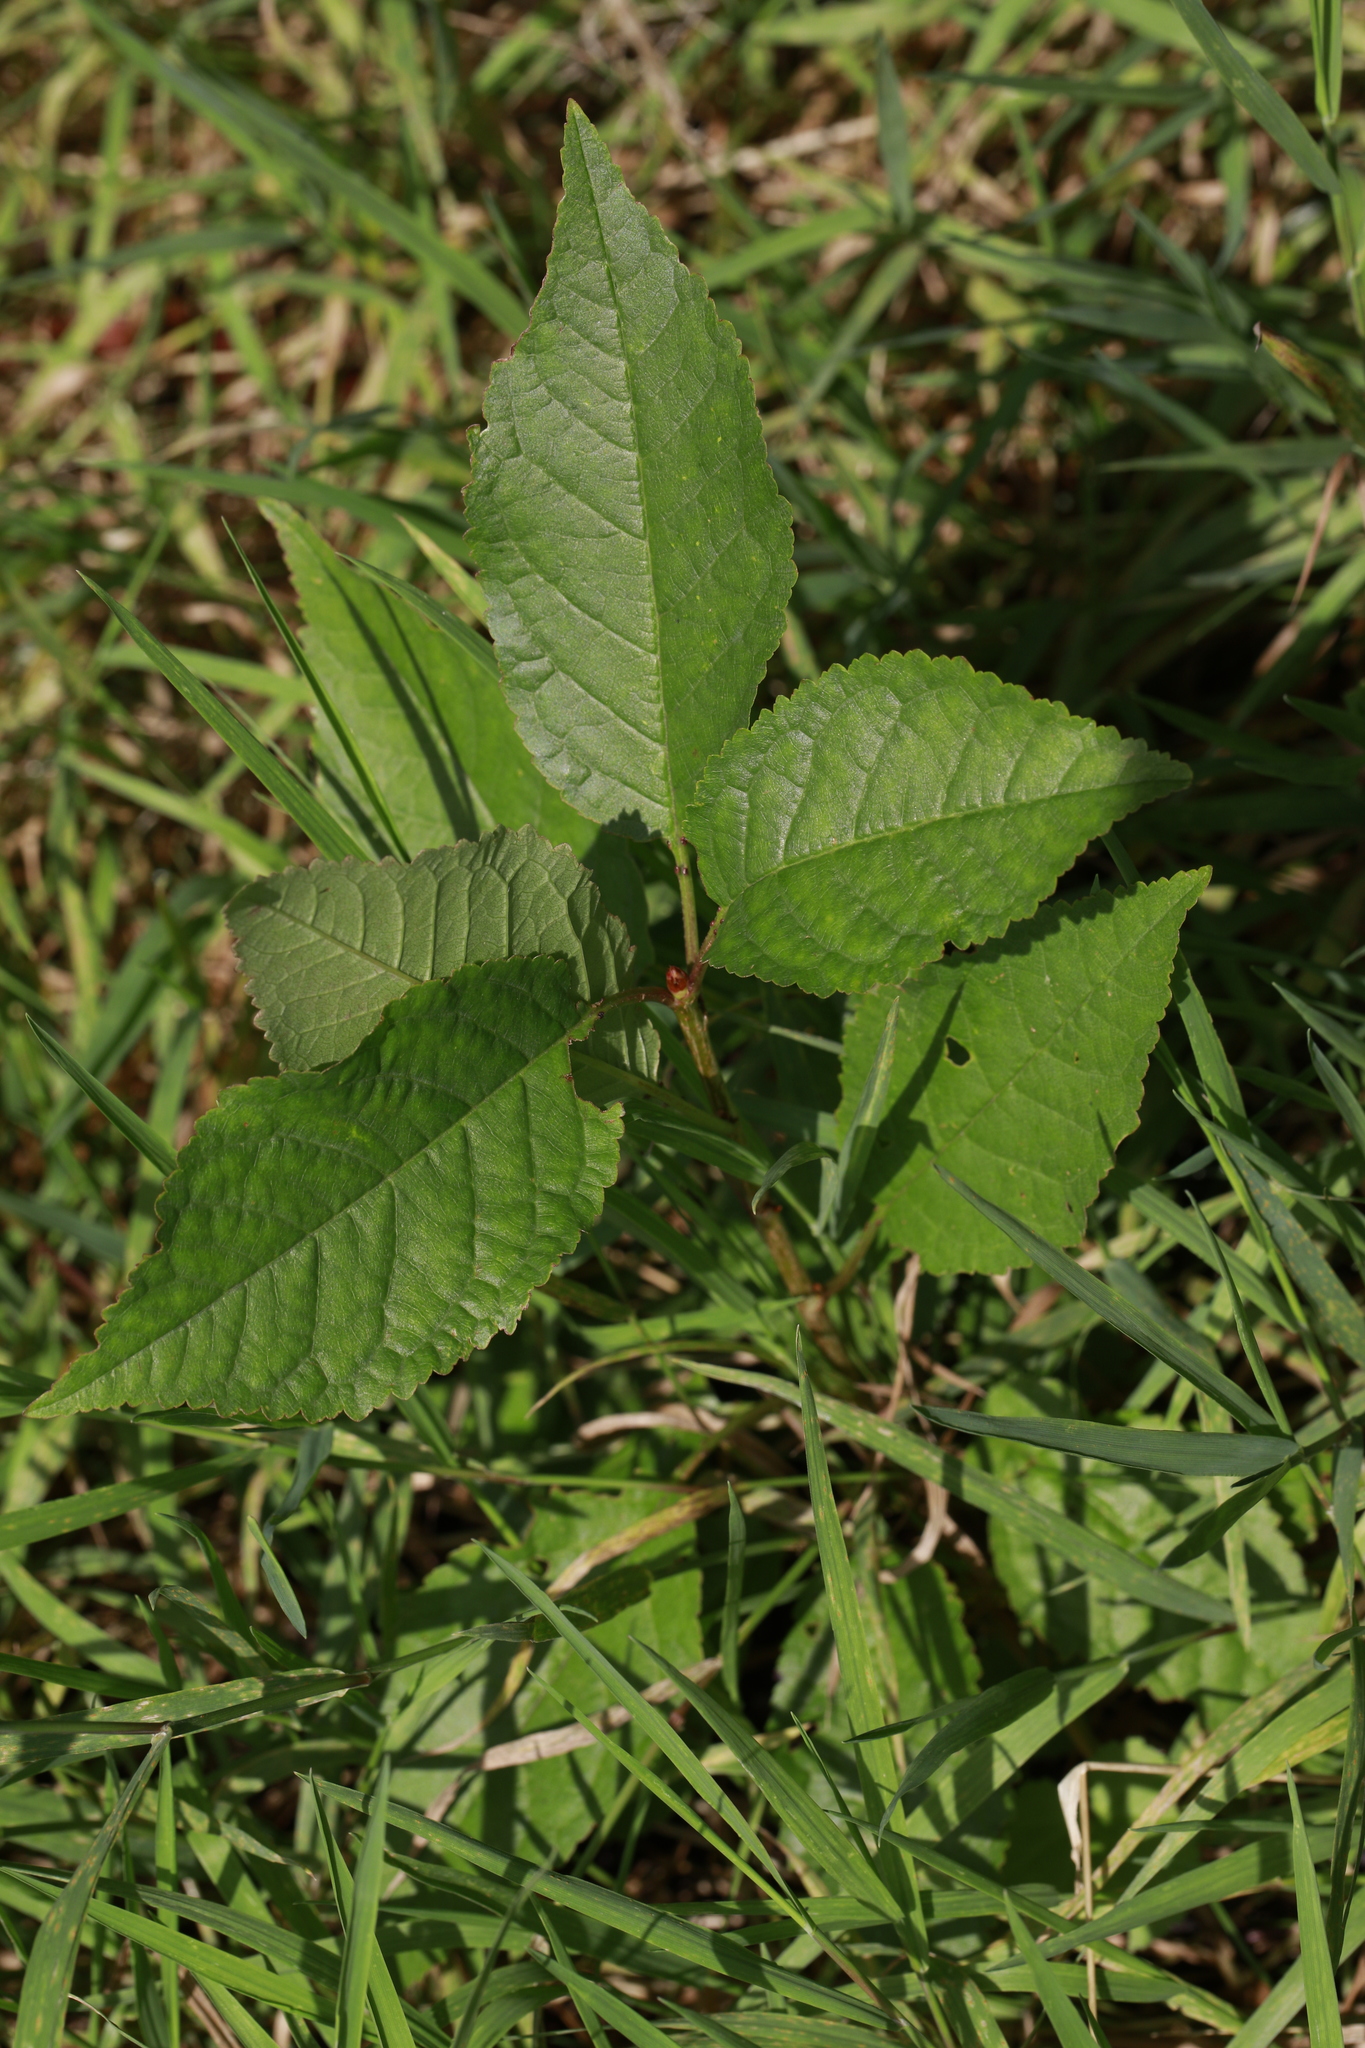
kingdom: Plantae
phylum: Tracheophyta
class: Magnoliopsida
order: Rosales
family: Rosaceae
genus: Prunus
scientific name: Prunus avium
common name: Sweet cherry
